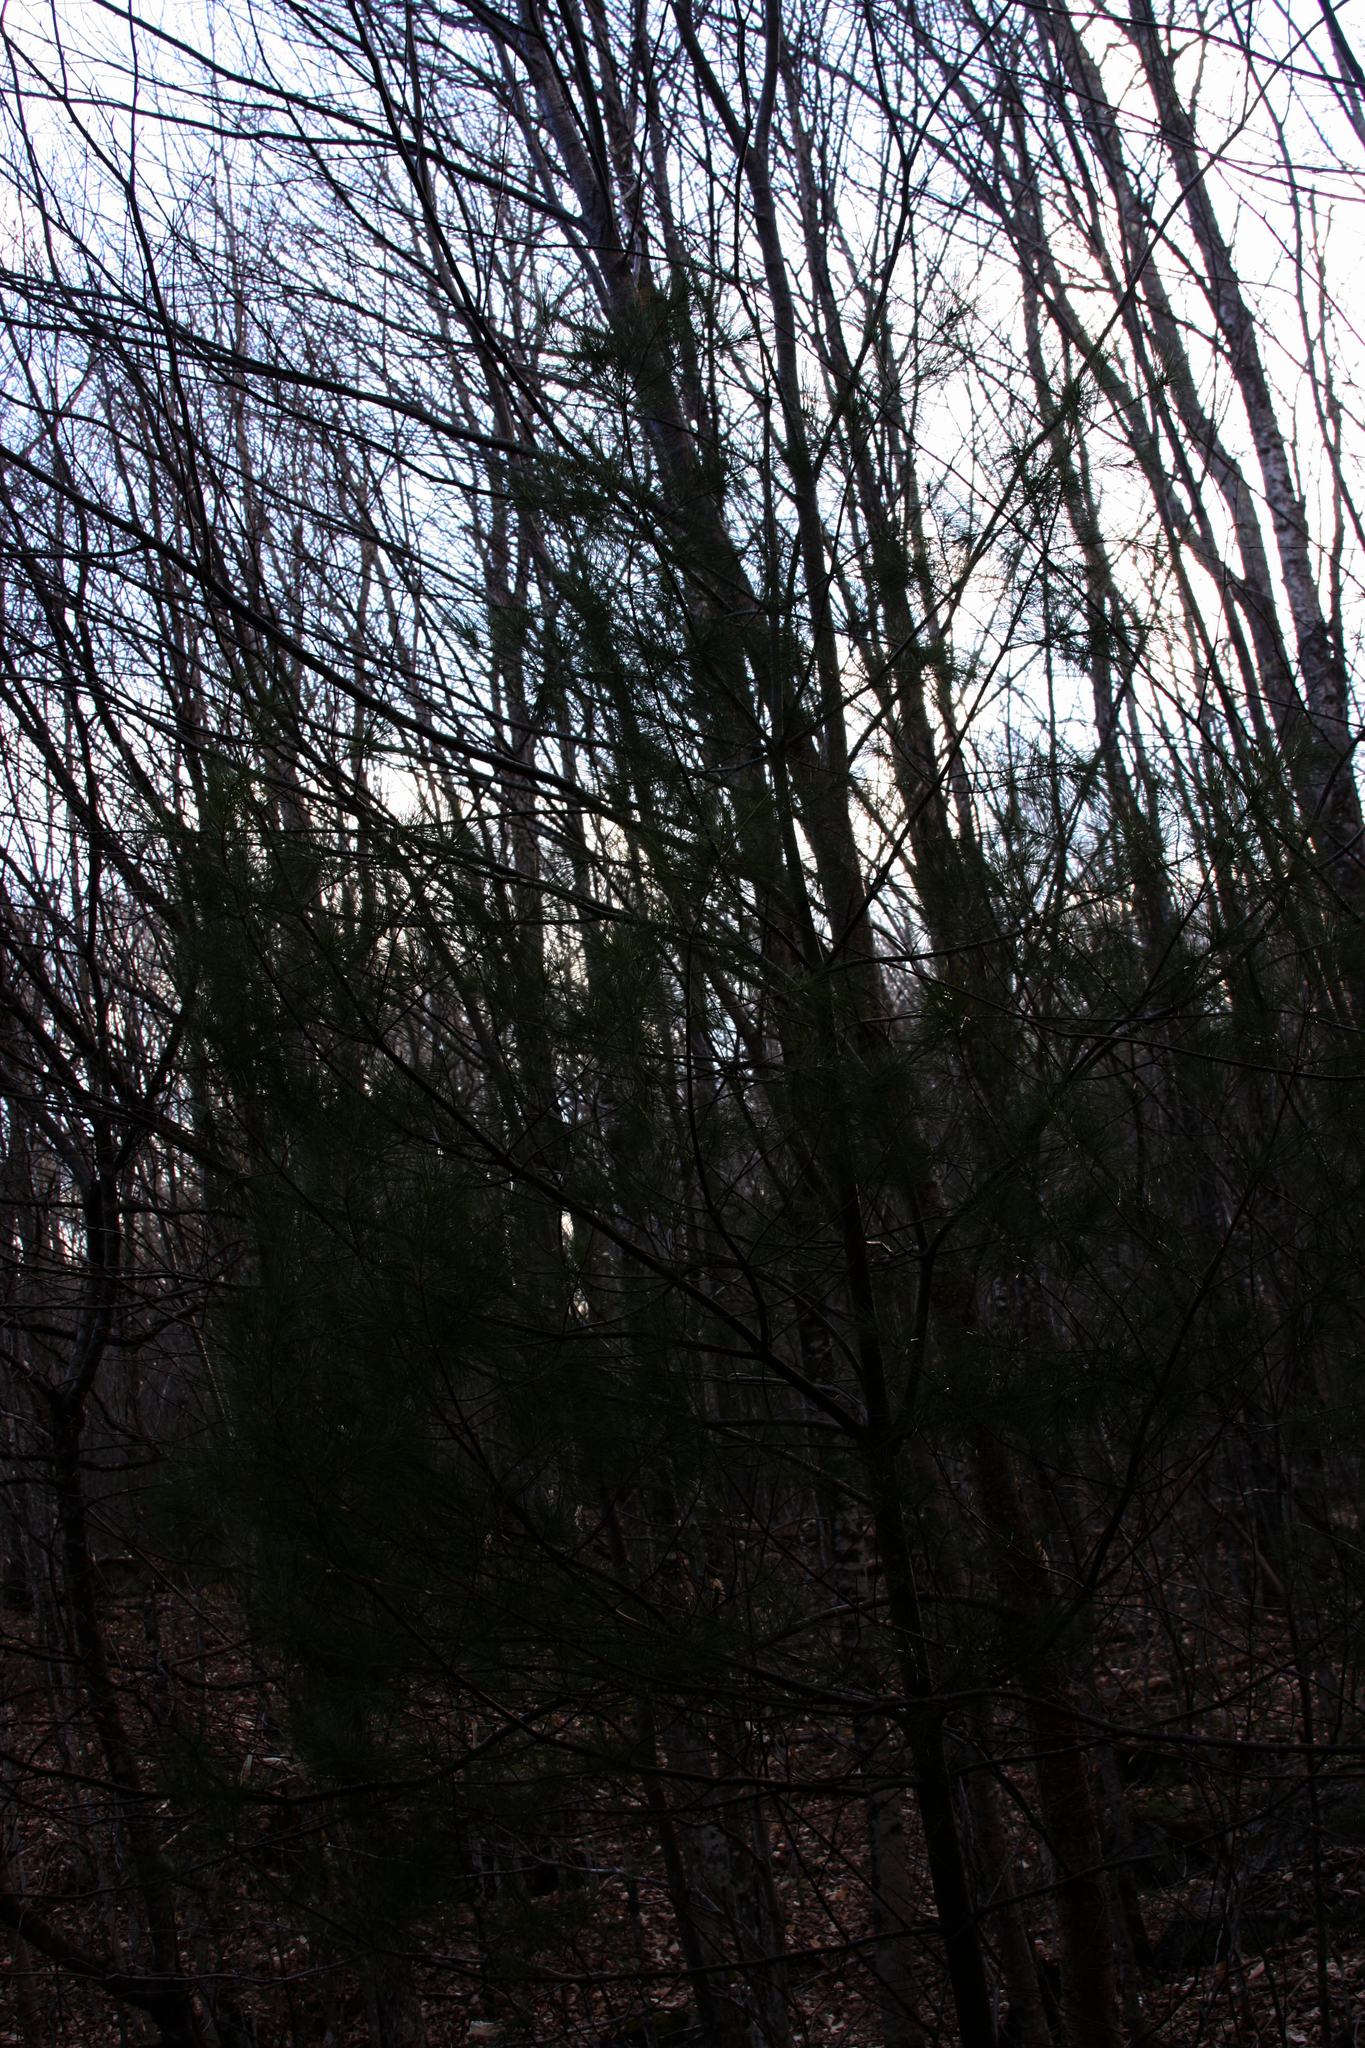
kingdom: Plantae
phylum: Tracheophyta
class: Pinopsida
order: Pinales
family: Pinaceae
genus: Pinus
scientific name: Pinus strobus
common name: Weymouth pine
